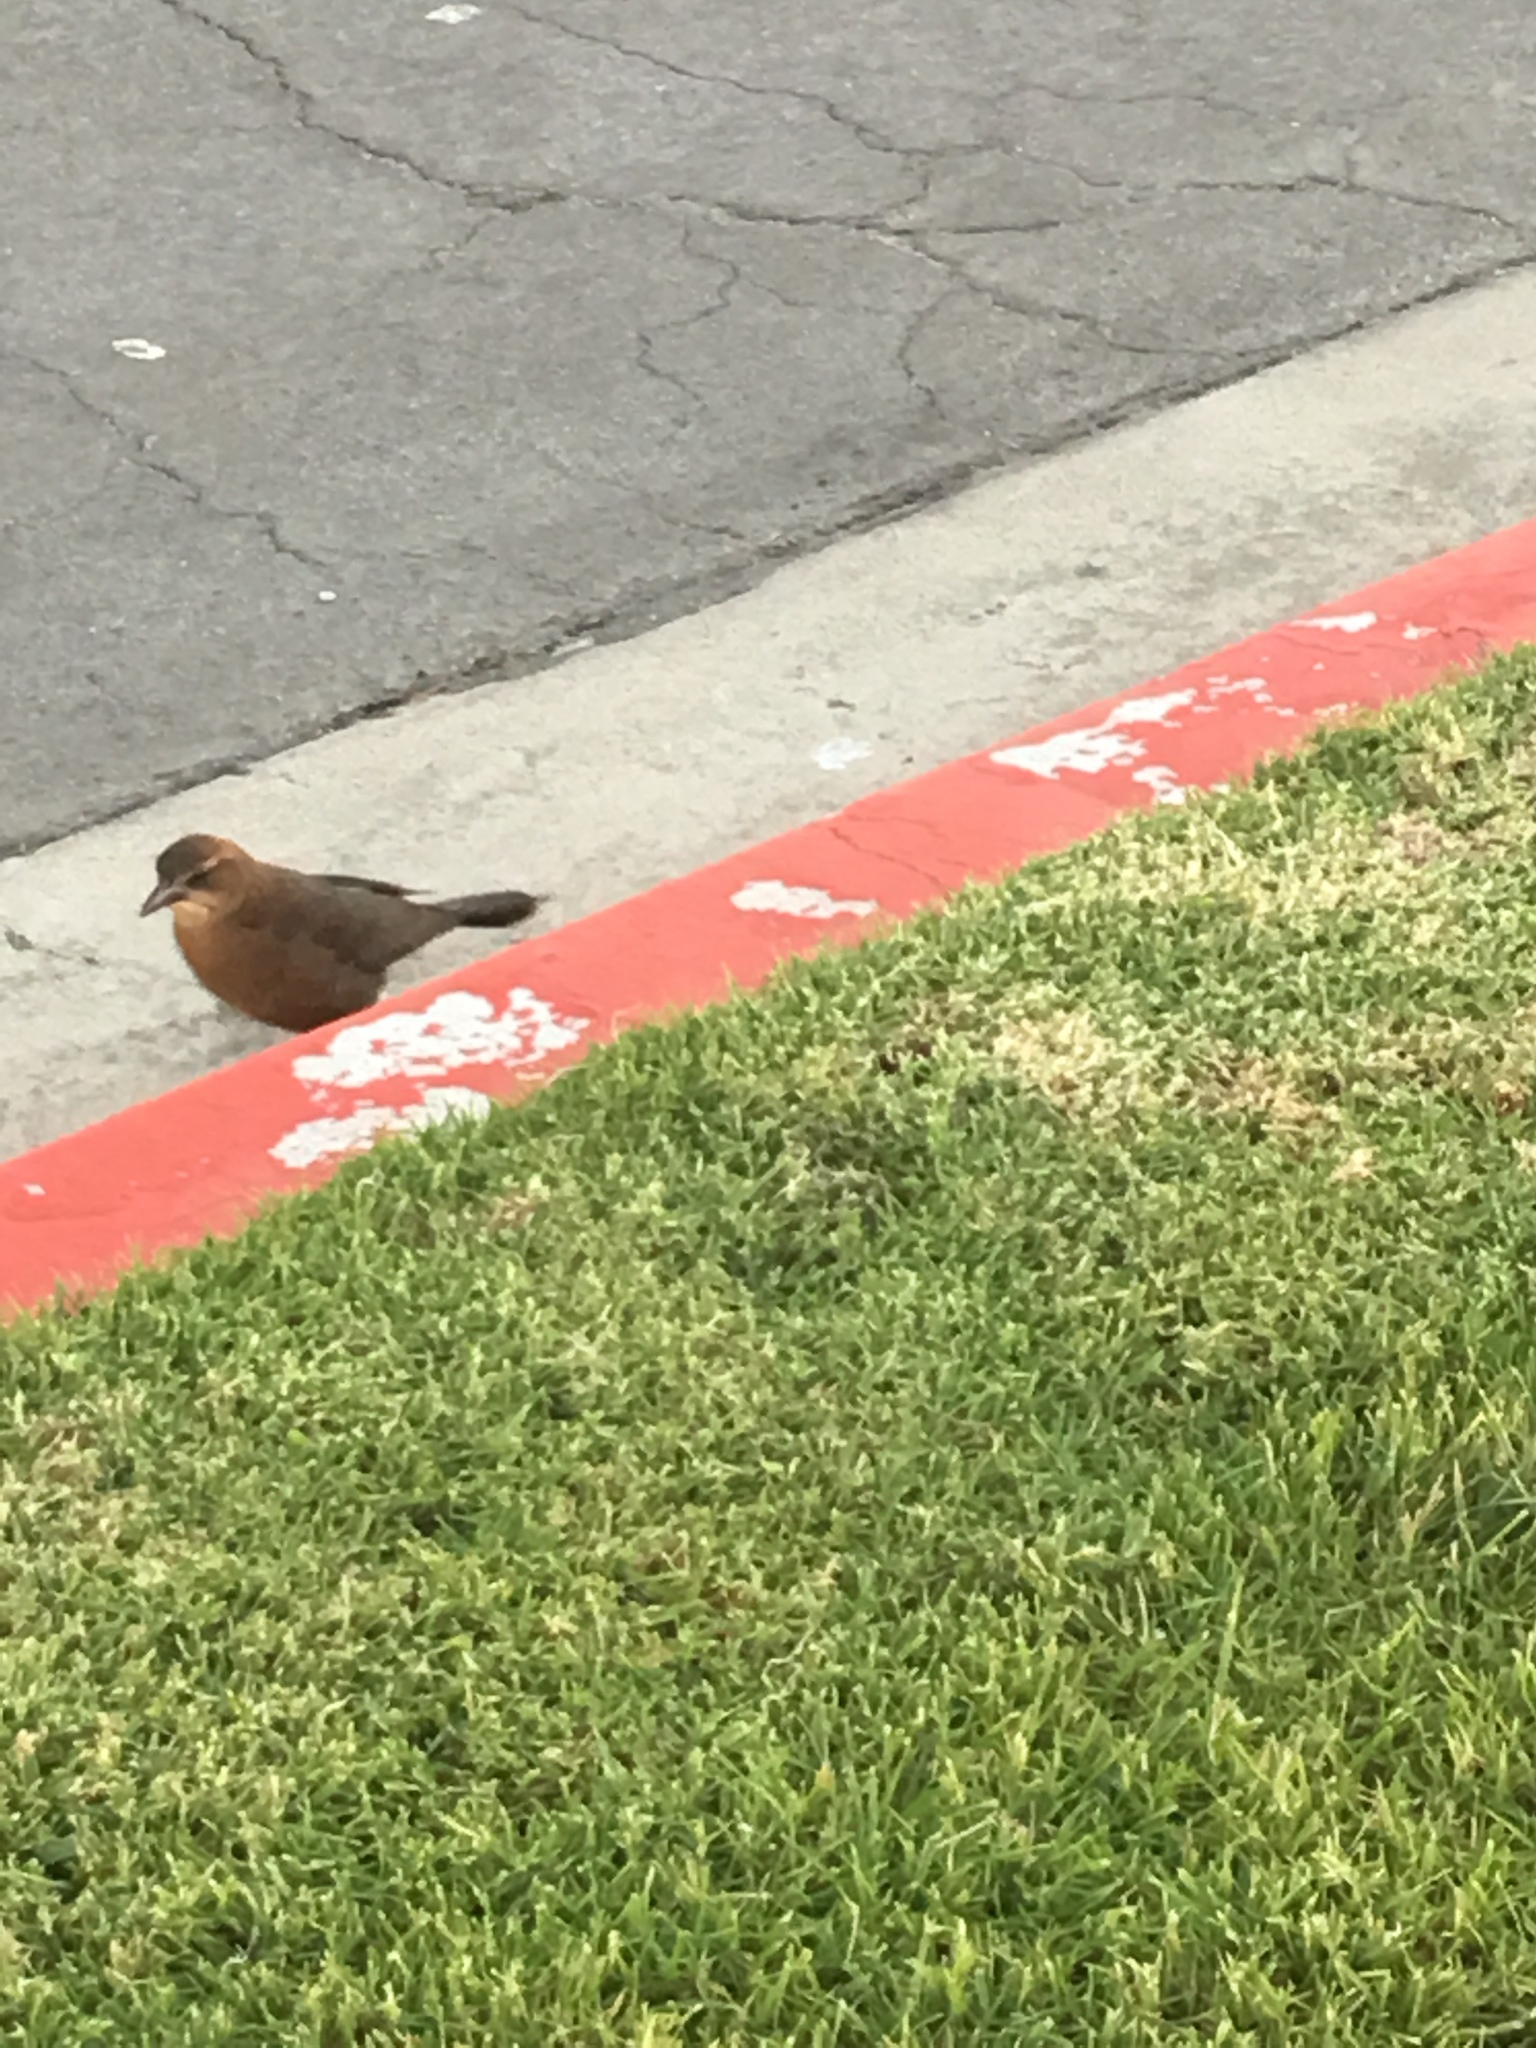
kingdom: Animalia
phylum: Chordata
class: Aves
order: Passeriformes
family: Icteridae
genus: Quiscalus
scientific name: Quiscalus mexicanus
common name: Great-tailed grackle
